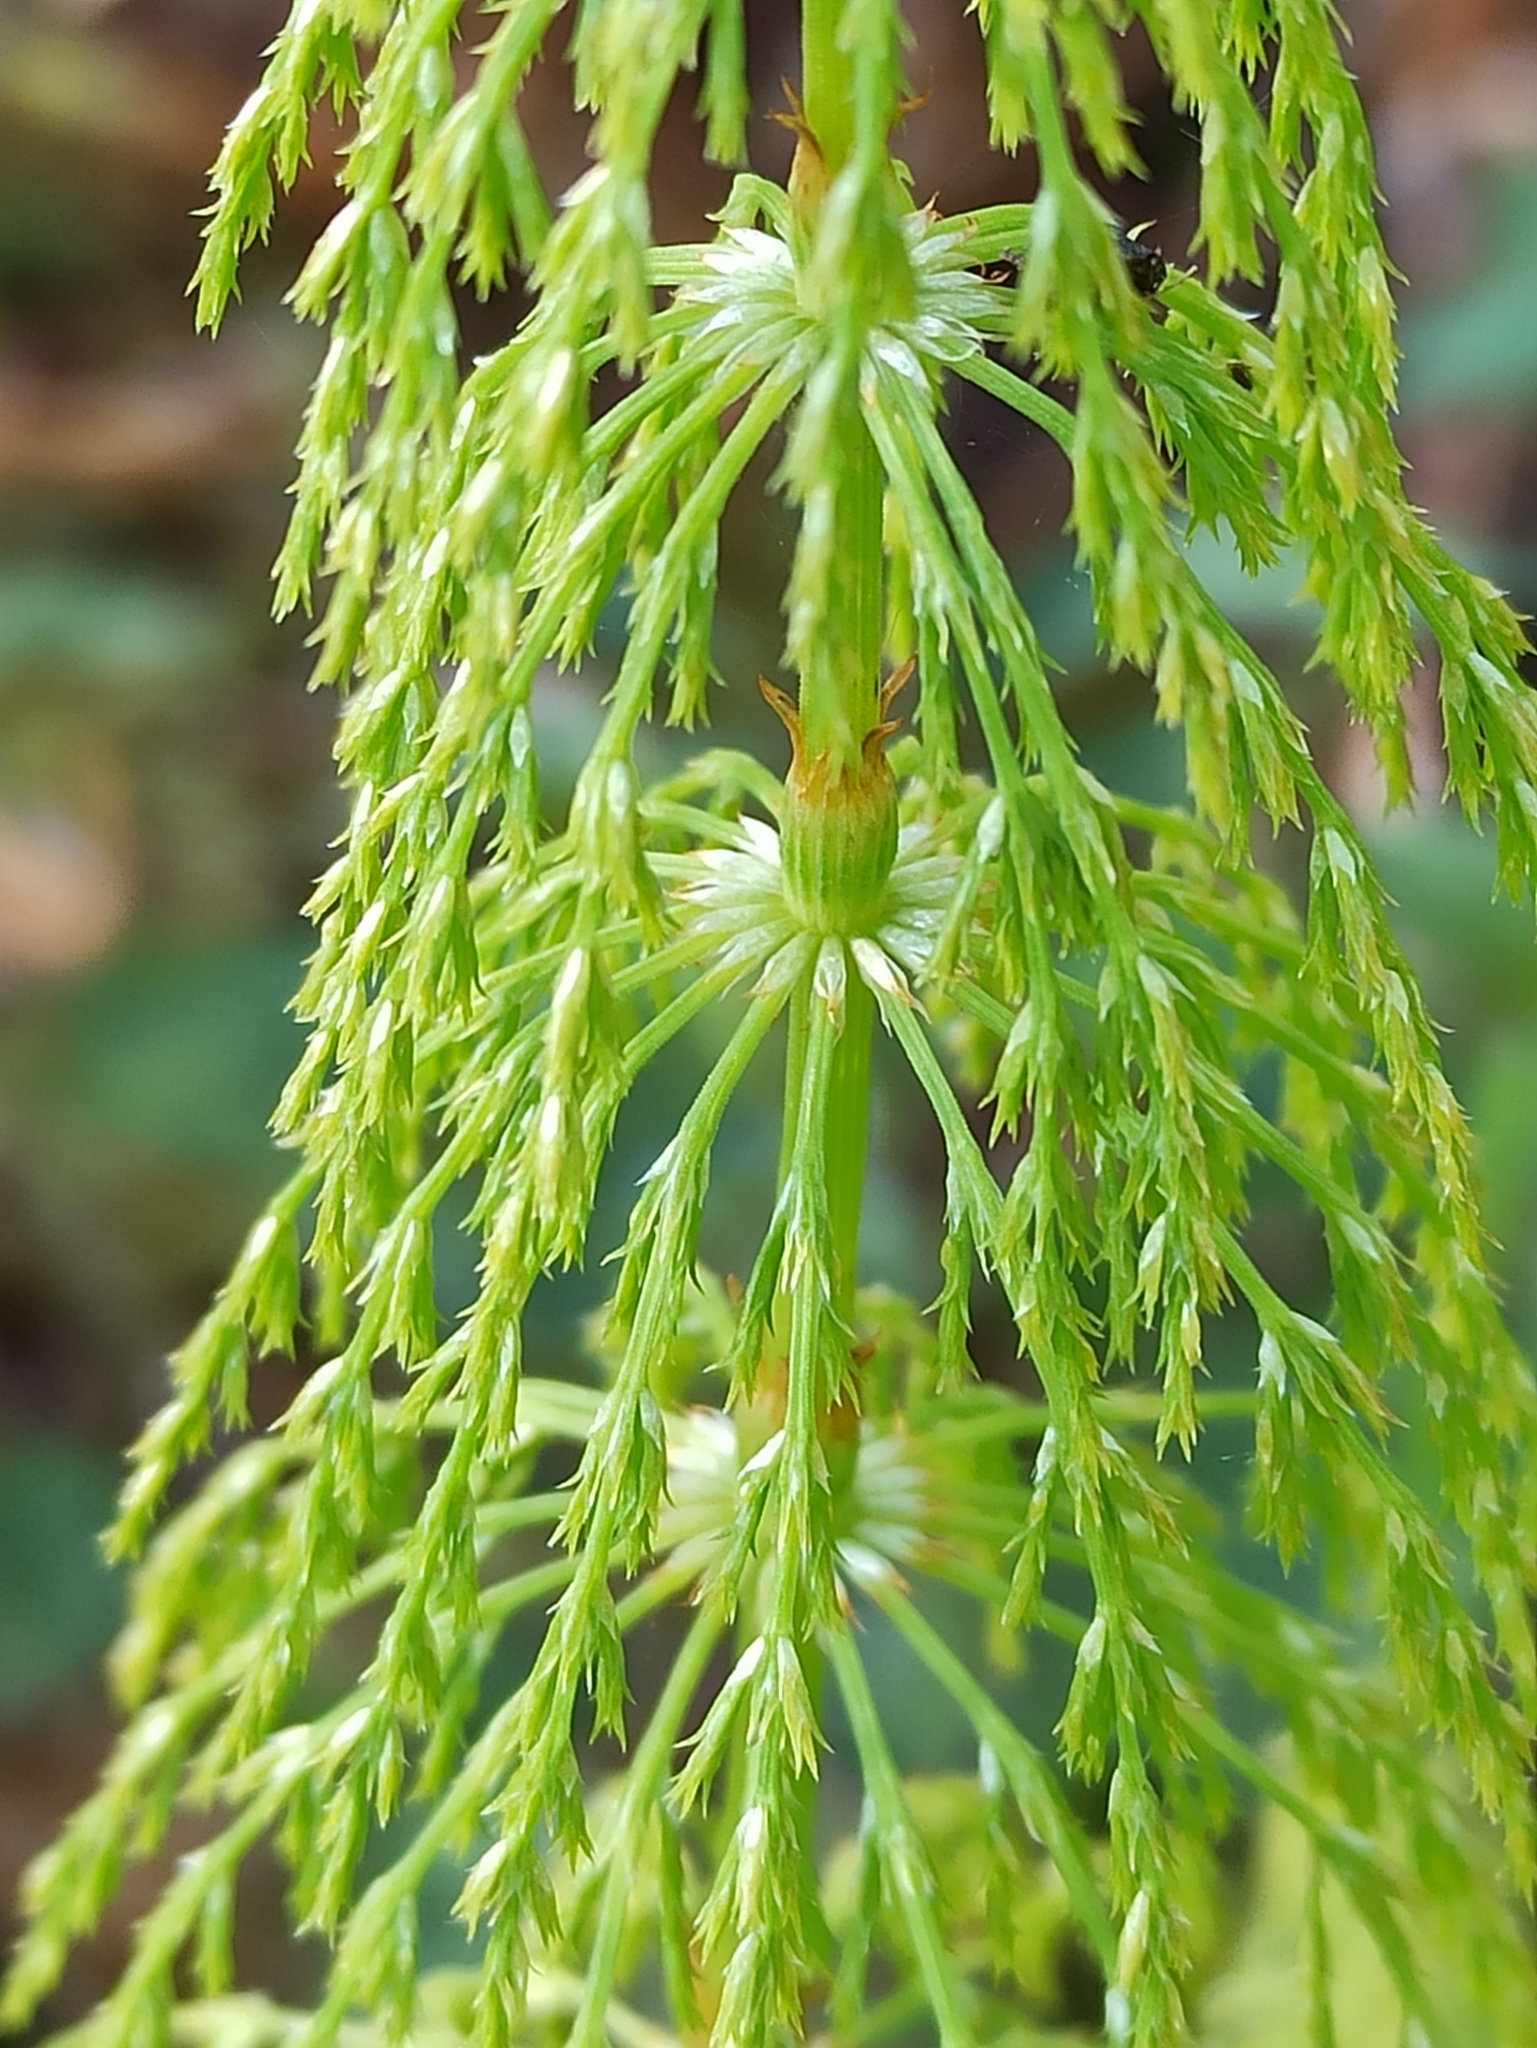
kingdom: Plantae
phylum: Tracheophyta
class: Polypodiopsida
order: Equisetales
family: Equisetaceae
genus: Equisetum
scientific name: Equisetum sylvaticum
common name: Wood horsetail
